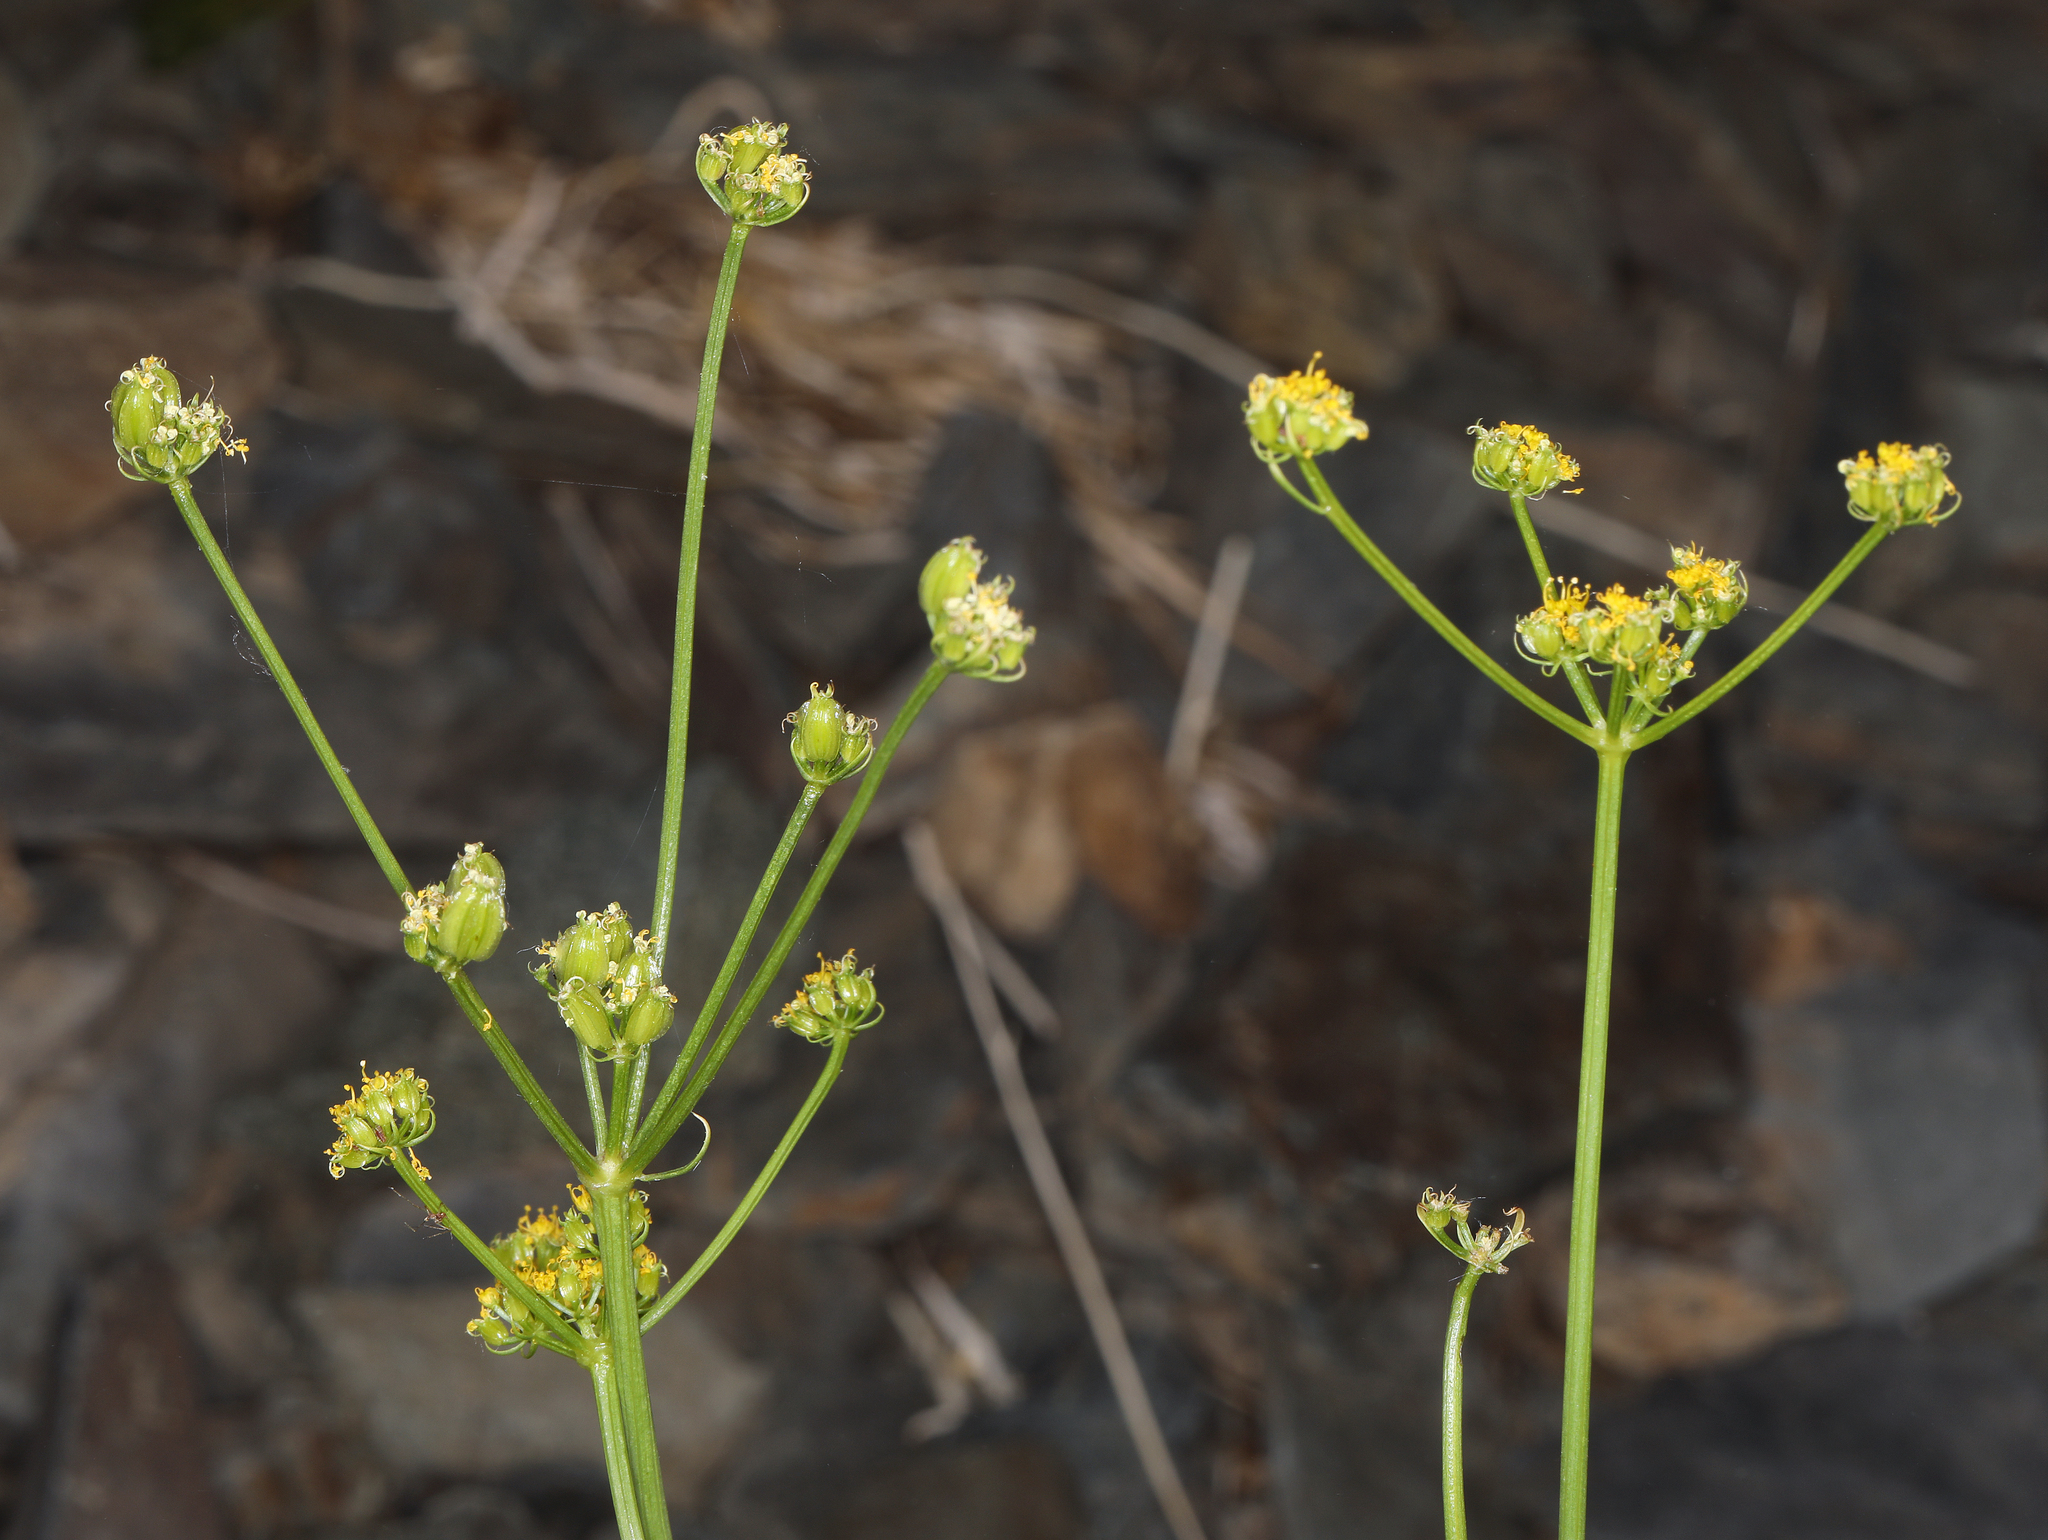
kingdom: Plantae
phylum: Tracheophyta
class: Magnoliopsida
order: Apiales
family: Apiaceae
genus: Pteryxia
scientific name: Pteryxia petraea
